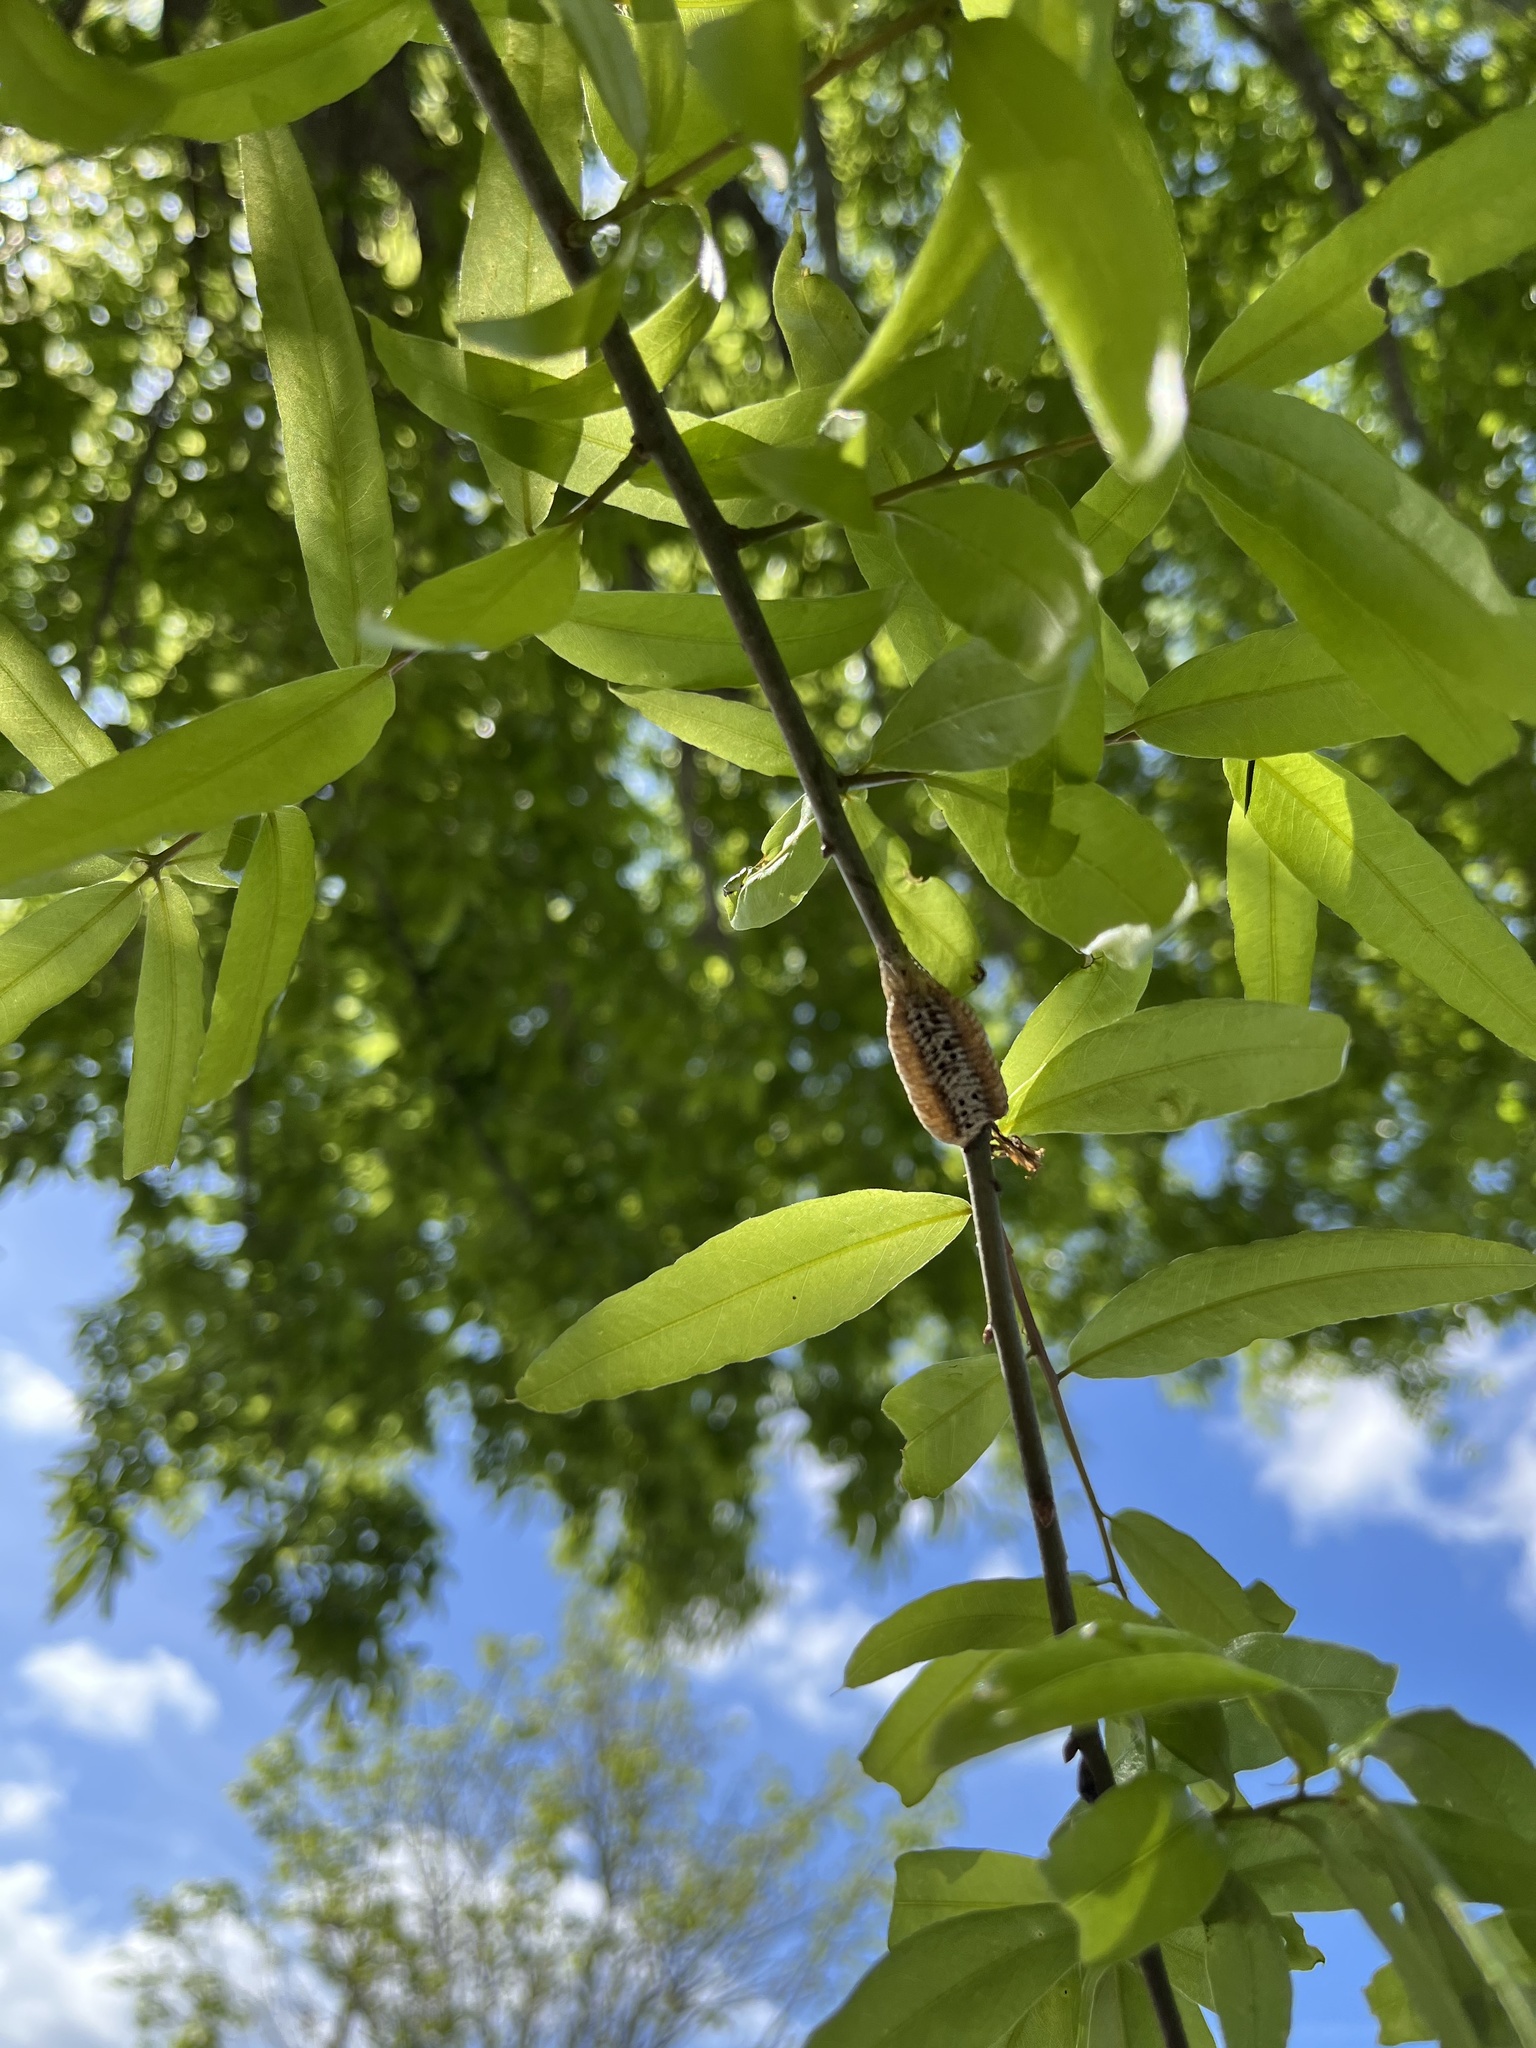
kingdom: Animalia
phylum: Arthropoda
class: Insecta
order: Mantodea
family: Mantidae
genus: Stagmomantis
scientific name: Stagmomantis carolina
